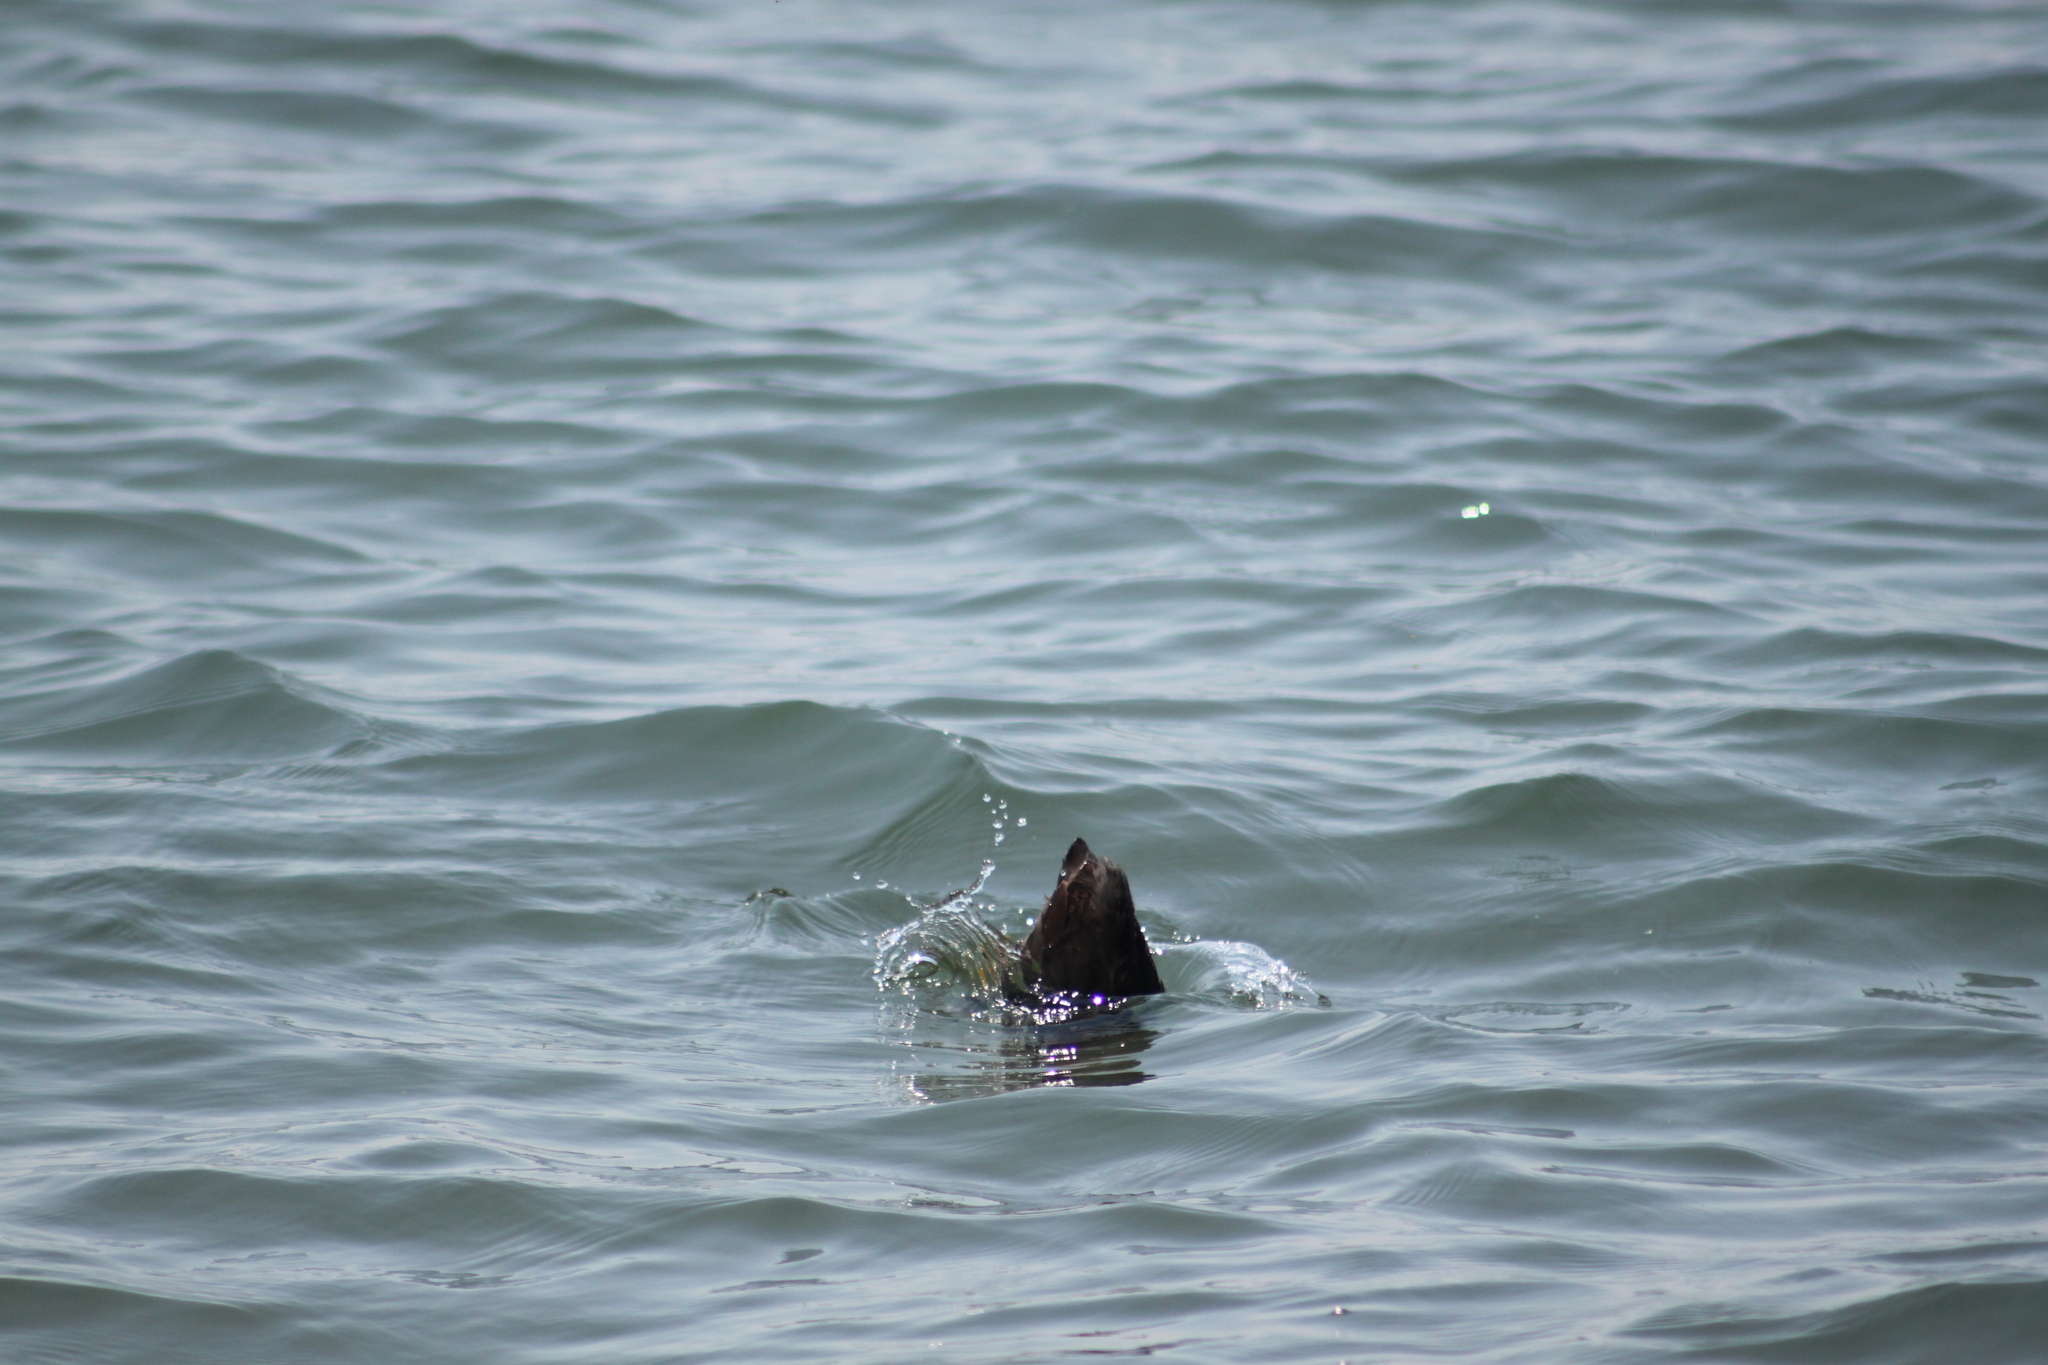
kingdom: Animalia
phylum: Chordata
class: Aves
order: Gruiformes
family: Rallidae
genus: Fulica
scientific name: Fulica atra
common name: Eurasian coot
